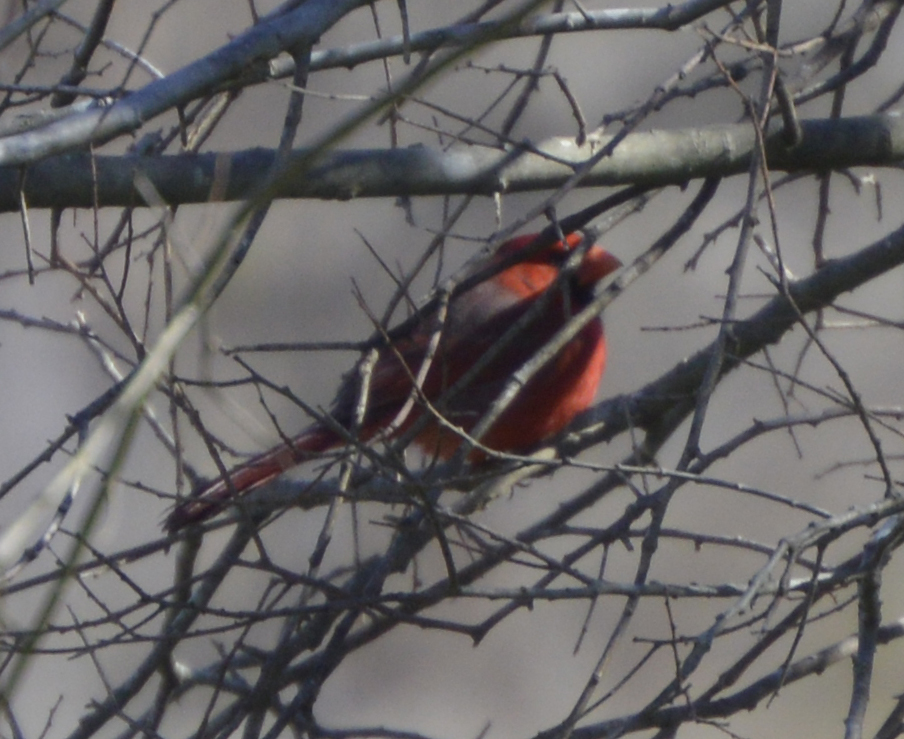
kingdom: Animalia
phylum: Chordata
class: Aves
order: Passeriformes
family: Cardinalidae
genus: Cardinalis
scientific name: Cardinalis cardinalis
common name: Northern cardinal
